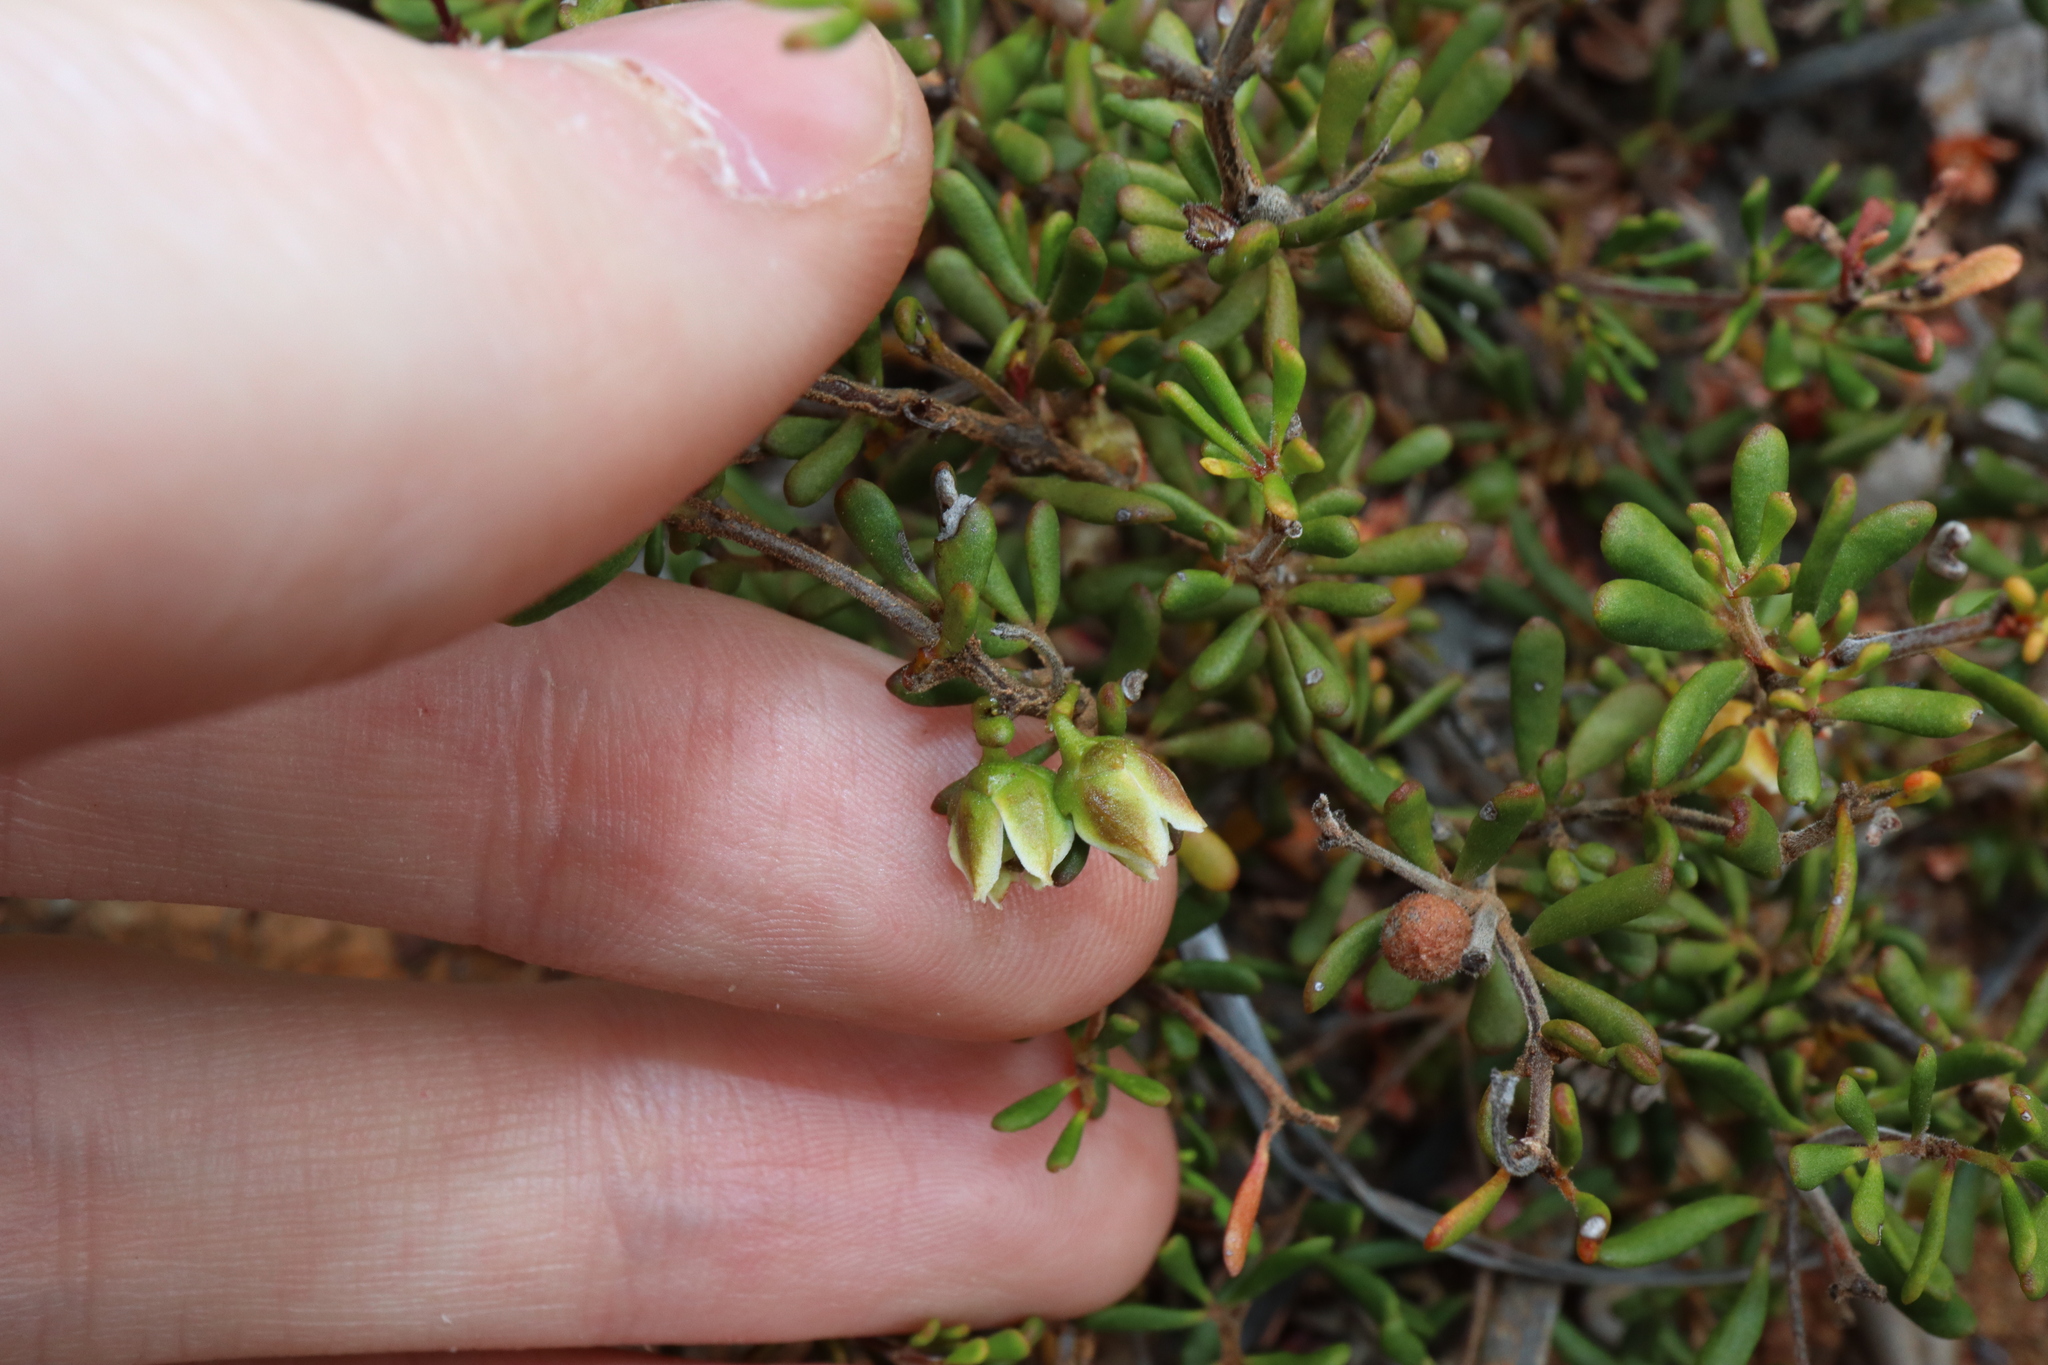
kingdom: Plantae
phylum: Tracheophyta
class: Magnoliopsida
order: Sapindales
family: Rutaceae
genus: Boronia
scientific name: Boronia crassifolia
